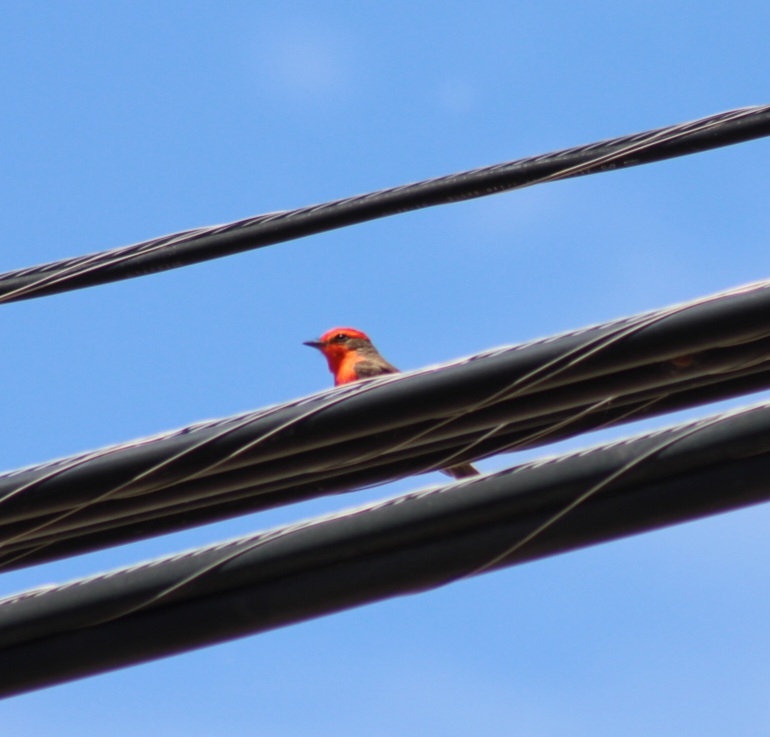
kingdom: Animalia
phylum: Chordata
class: Aves
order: Passeriformes
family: Tyrannidae
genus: Pyrocephalus
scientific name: Pyrocephalus rubinus
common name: Vermilion flycatcher
